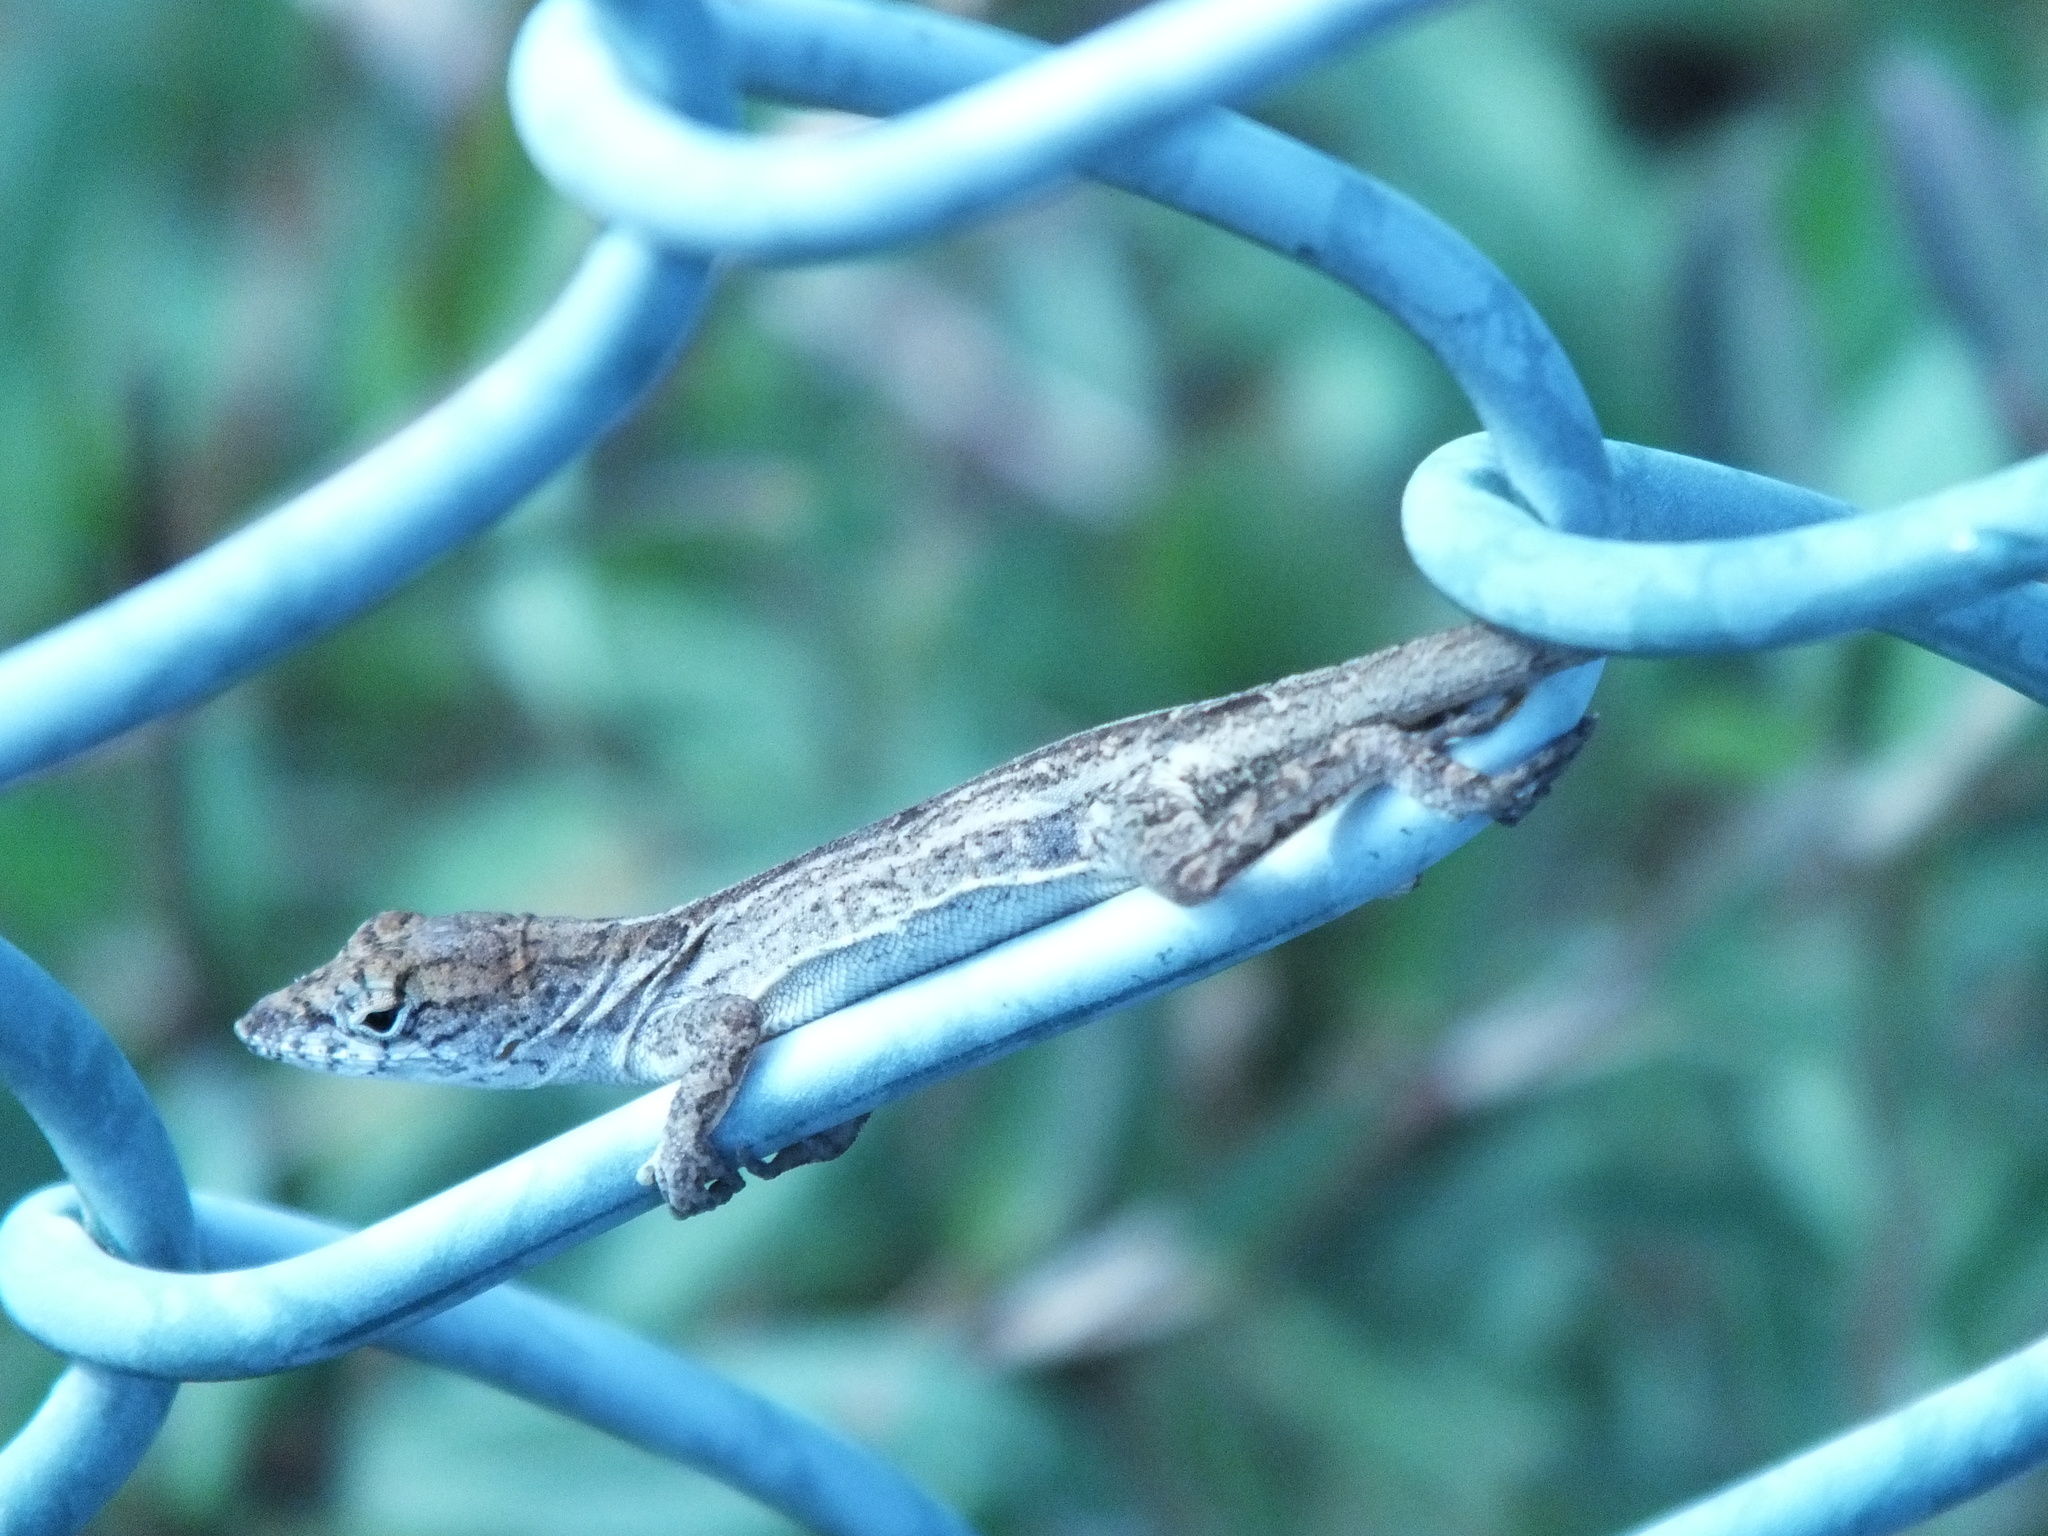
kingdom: Animalia
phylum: Chordata
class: Squamata
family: Dactyloidae
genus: Anolis
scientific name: Anolis sagrei
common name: Brown anole
